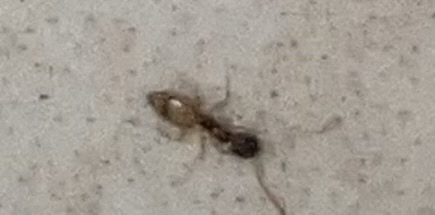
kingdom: Animalia
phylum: Arthropoda
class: Insecta
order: Hymenoptera
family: Formicidae
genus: Tapinoma
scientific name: Tapinoma melanocephalum
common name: Ghost ant
